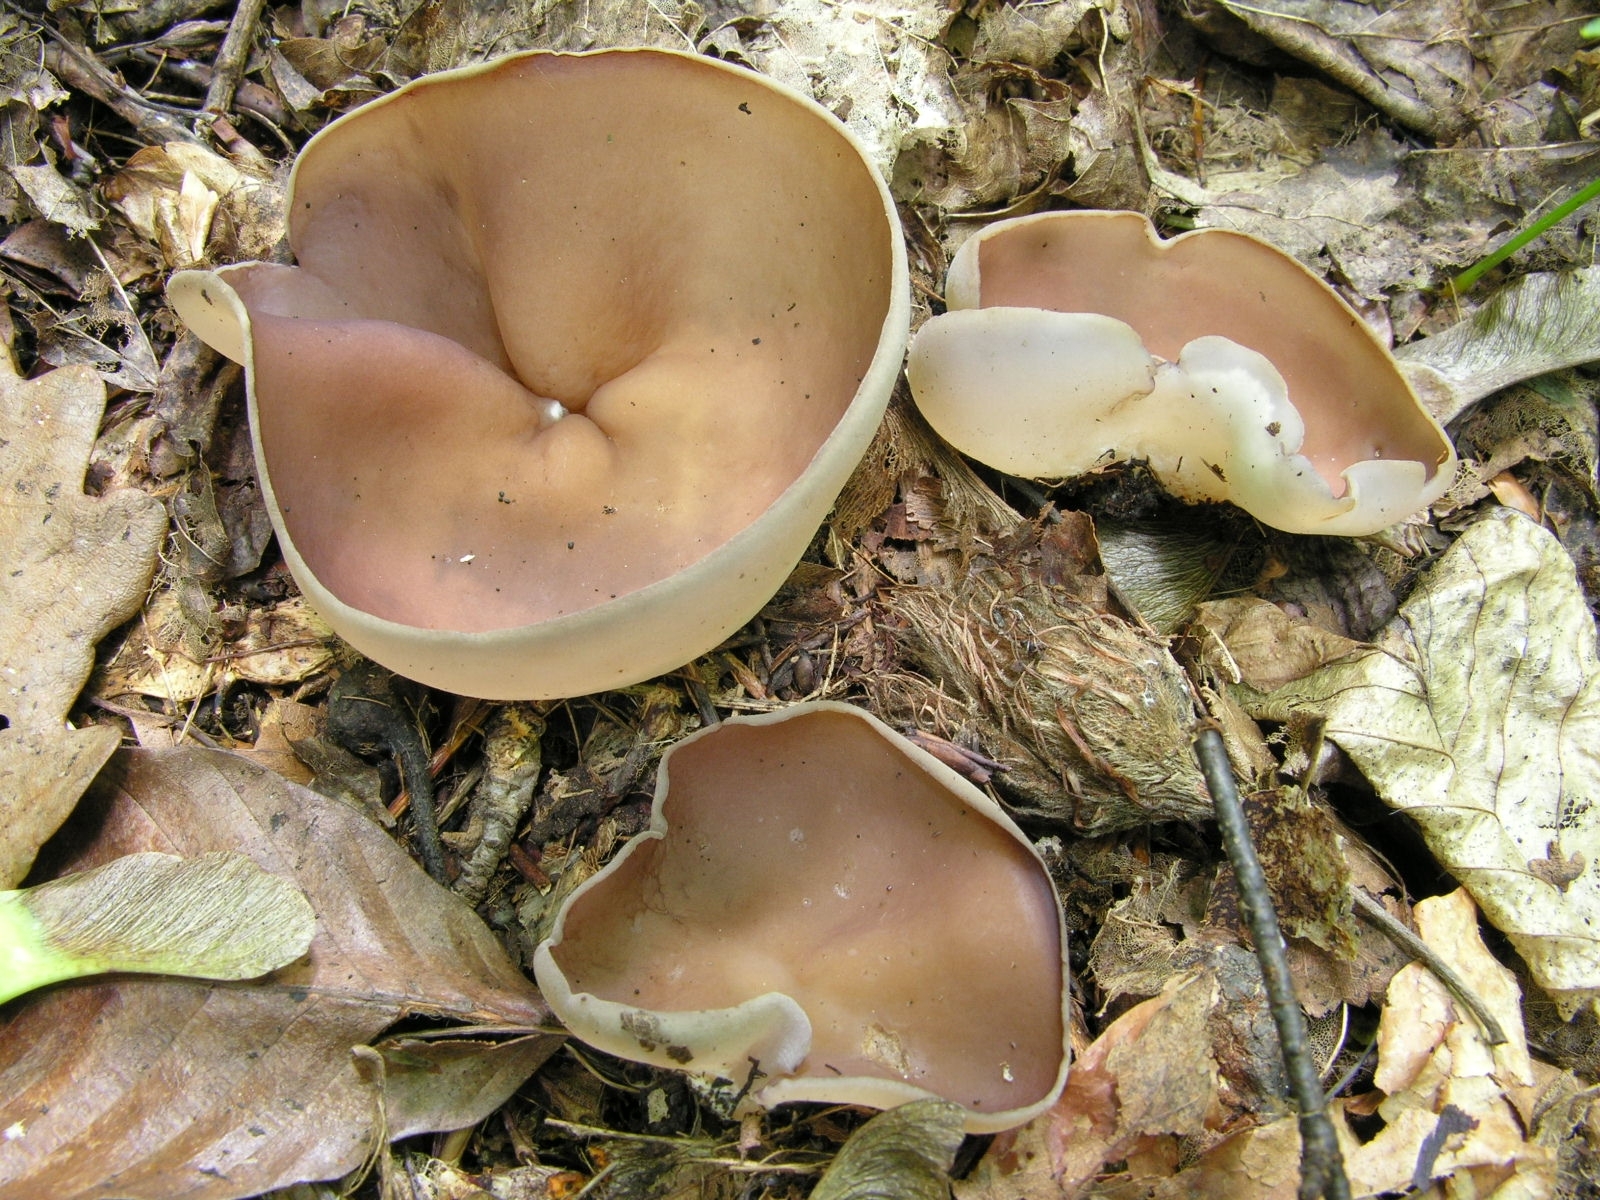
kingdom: Fungi
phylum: Ascomycota
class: Pezizomycetes
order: Pezizales
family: Pezizaceae
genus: Malvipezia
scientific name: Malvipezia howsei
